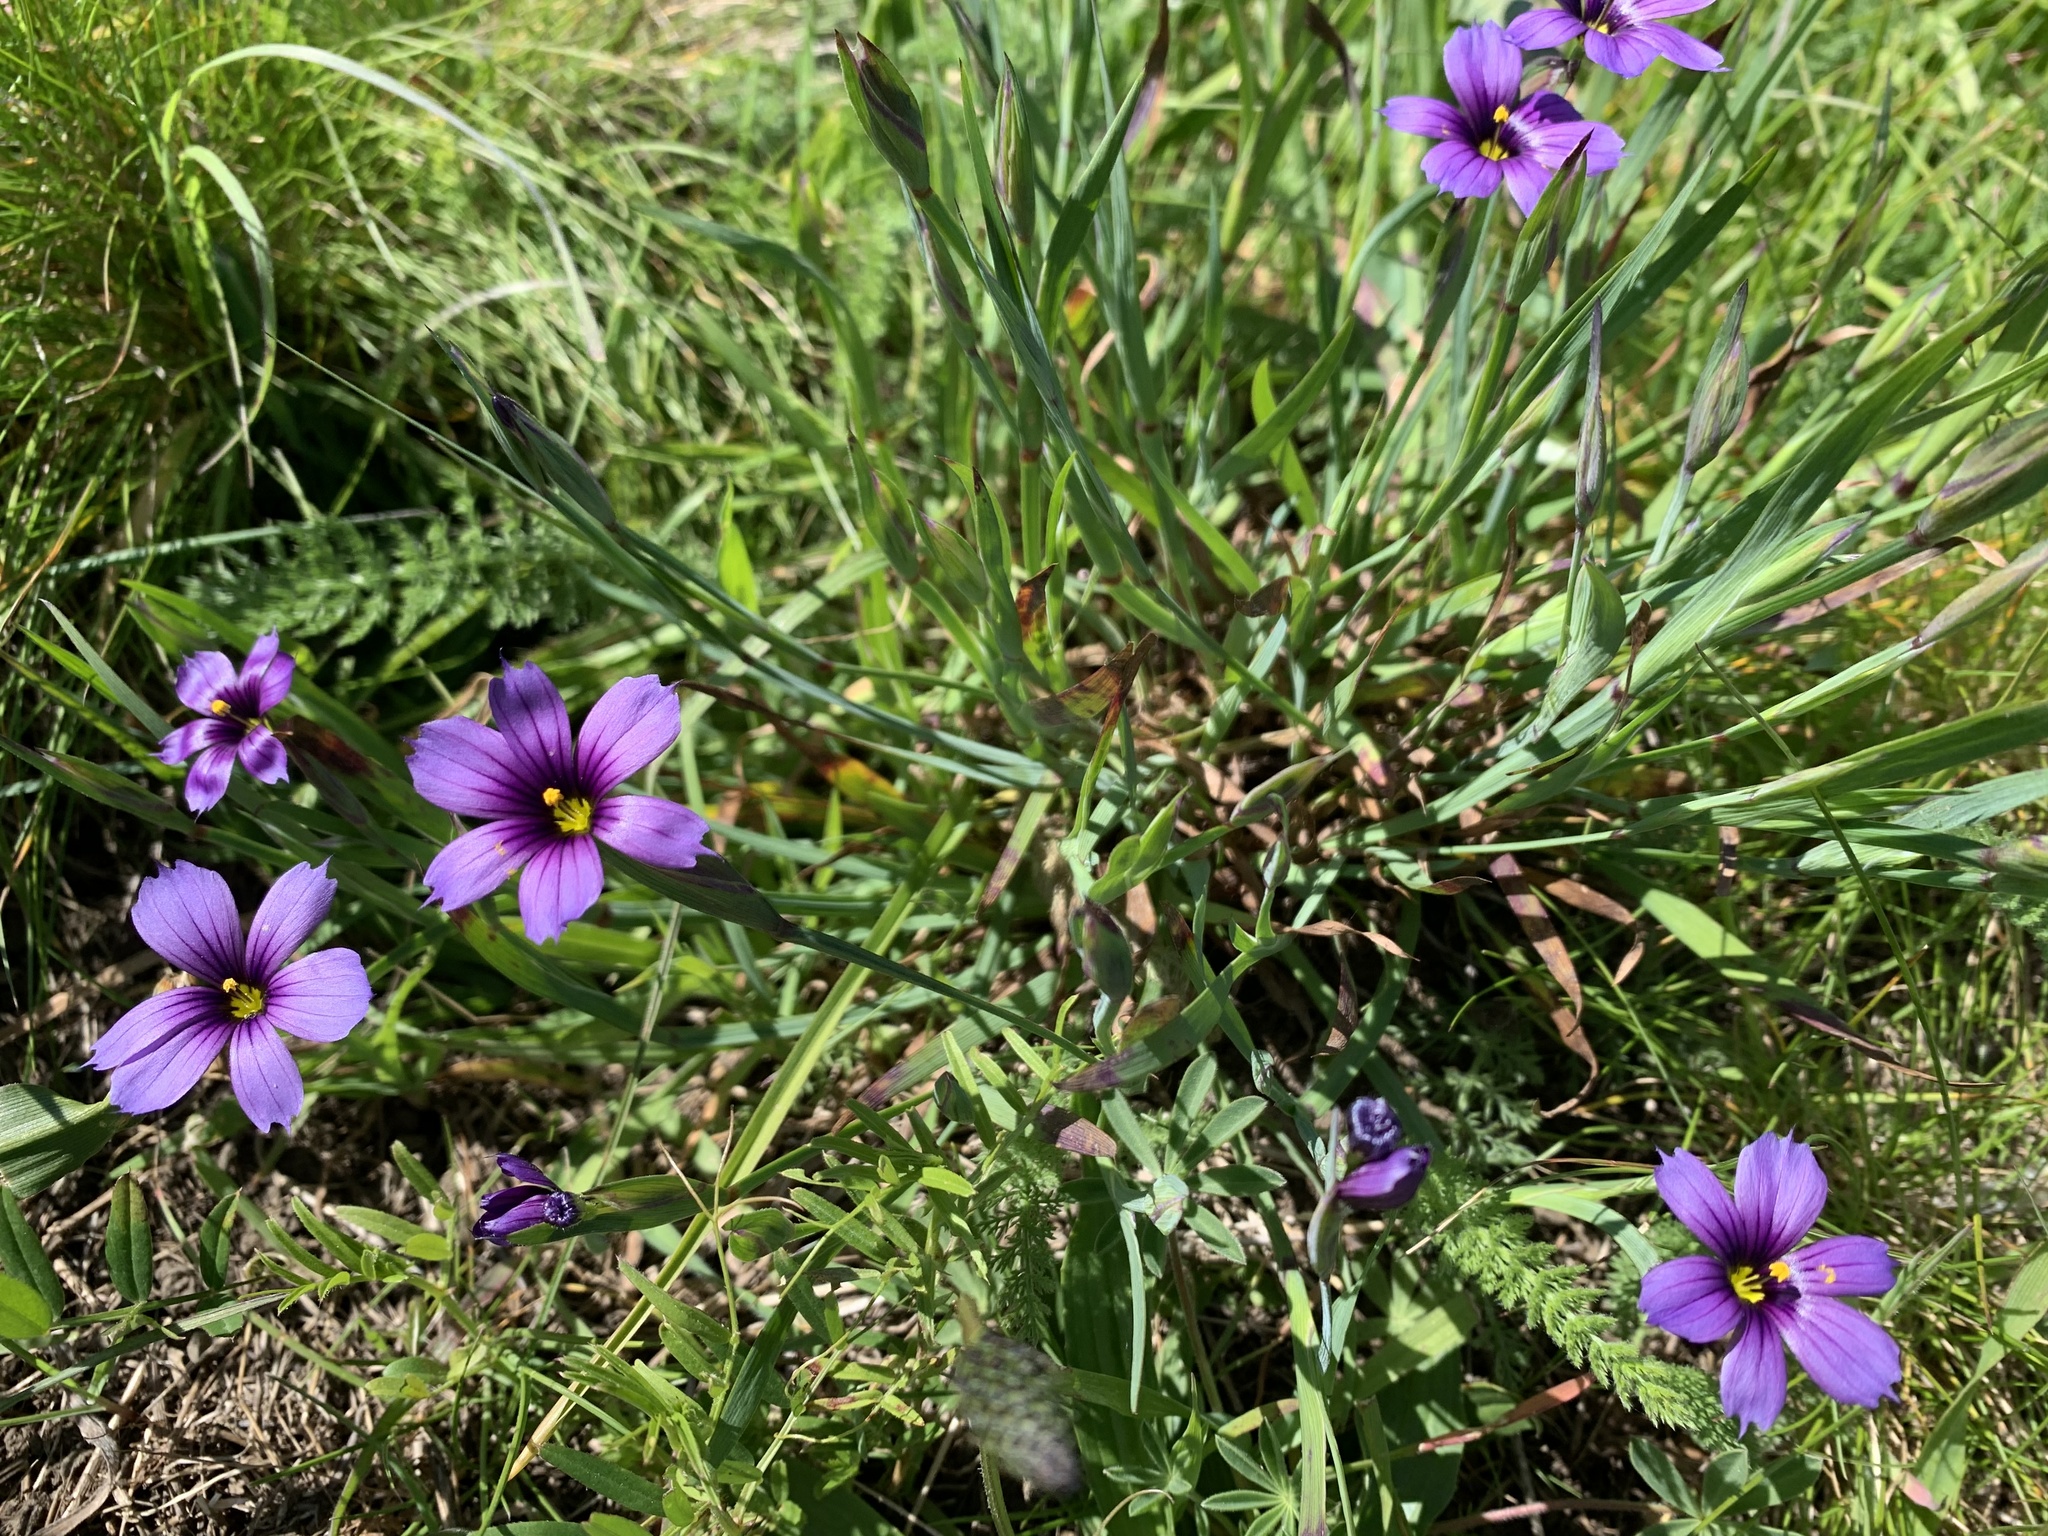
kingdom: Plantae
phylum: Tracheophyta
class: Liliopsida
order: Asparagales
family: Iridaceae
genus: Sisyrinchium
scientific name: Sisyrinchium bellum
